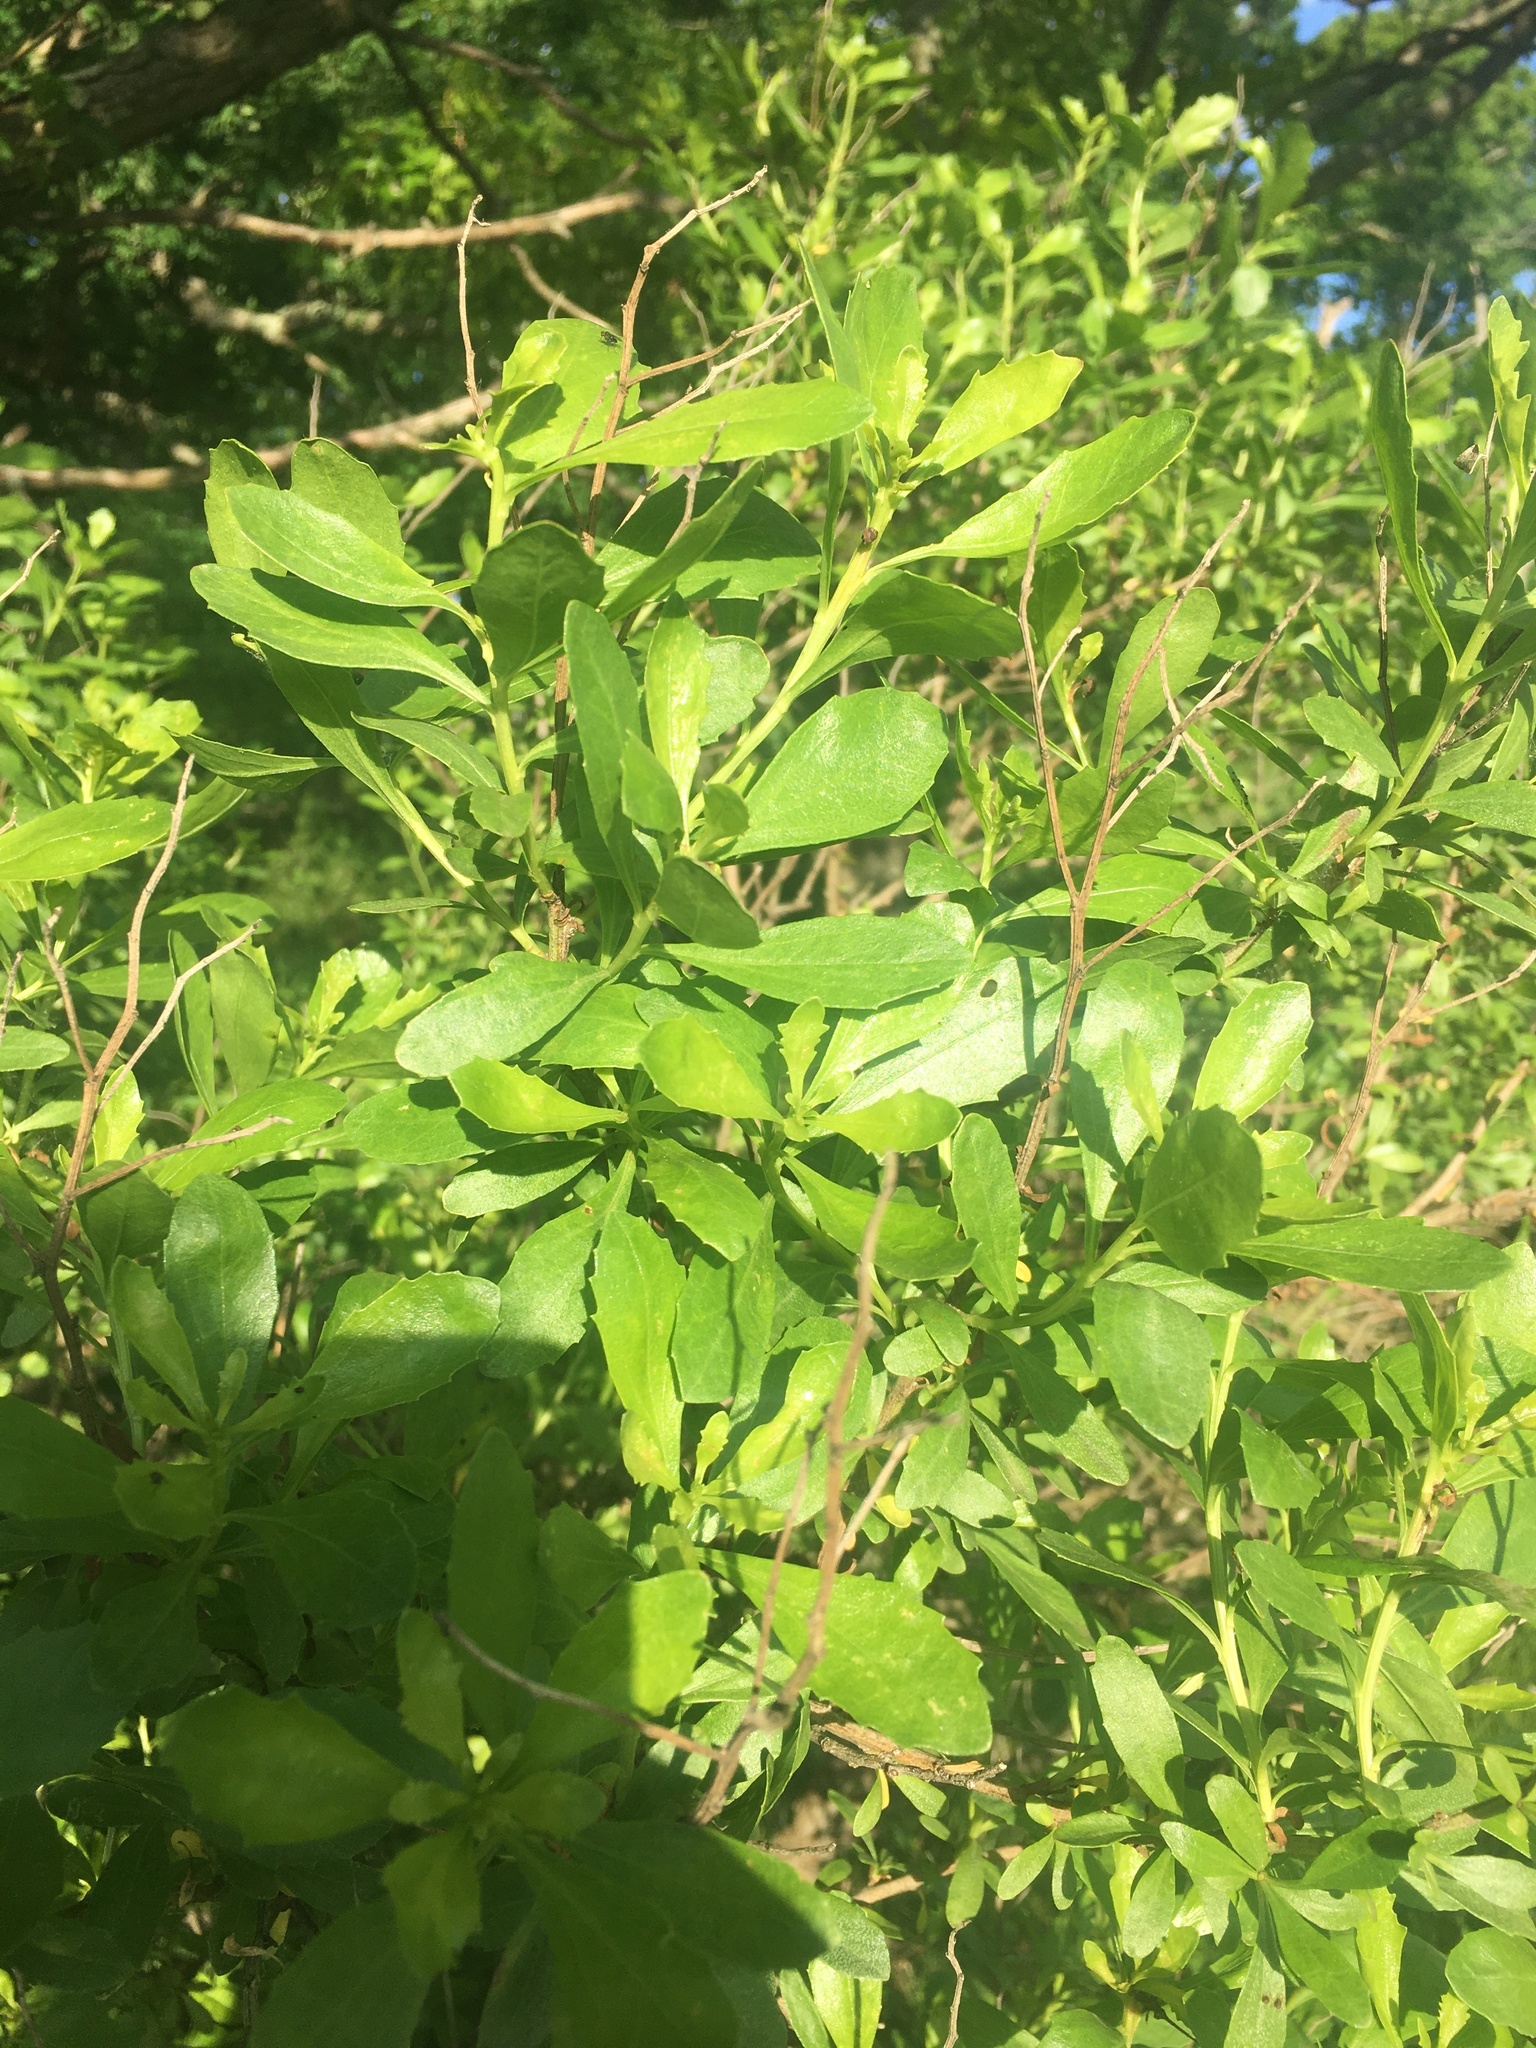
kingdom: Plantae
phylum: Tracheophyta
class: Magnoliopsida
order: Asterales
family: Asteraceae
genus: Baccharis
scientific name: Baccharis halimifolia
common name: Eastern baccharis
